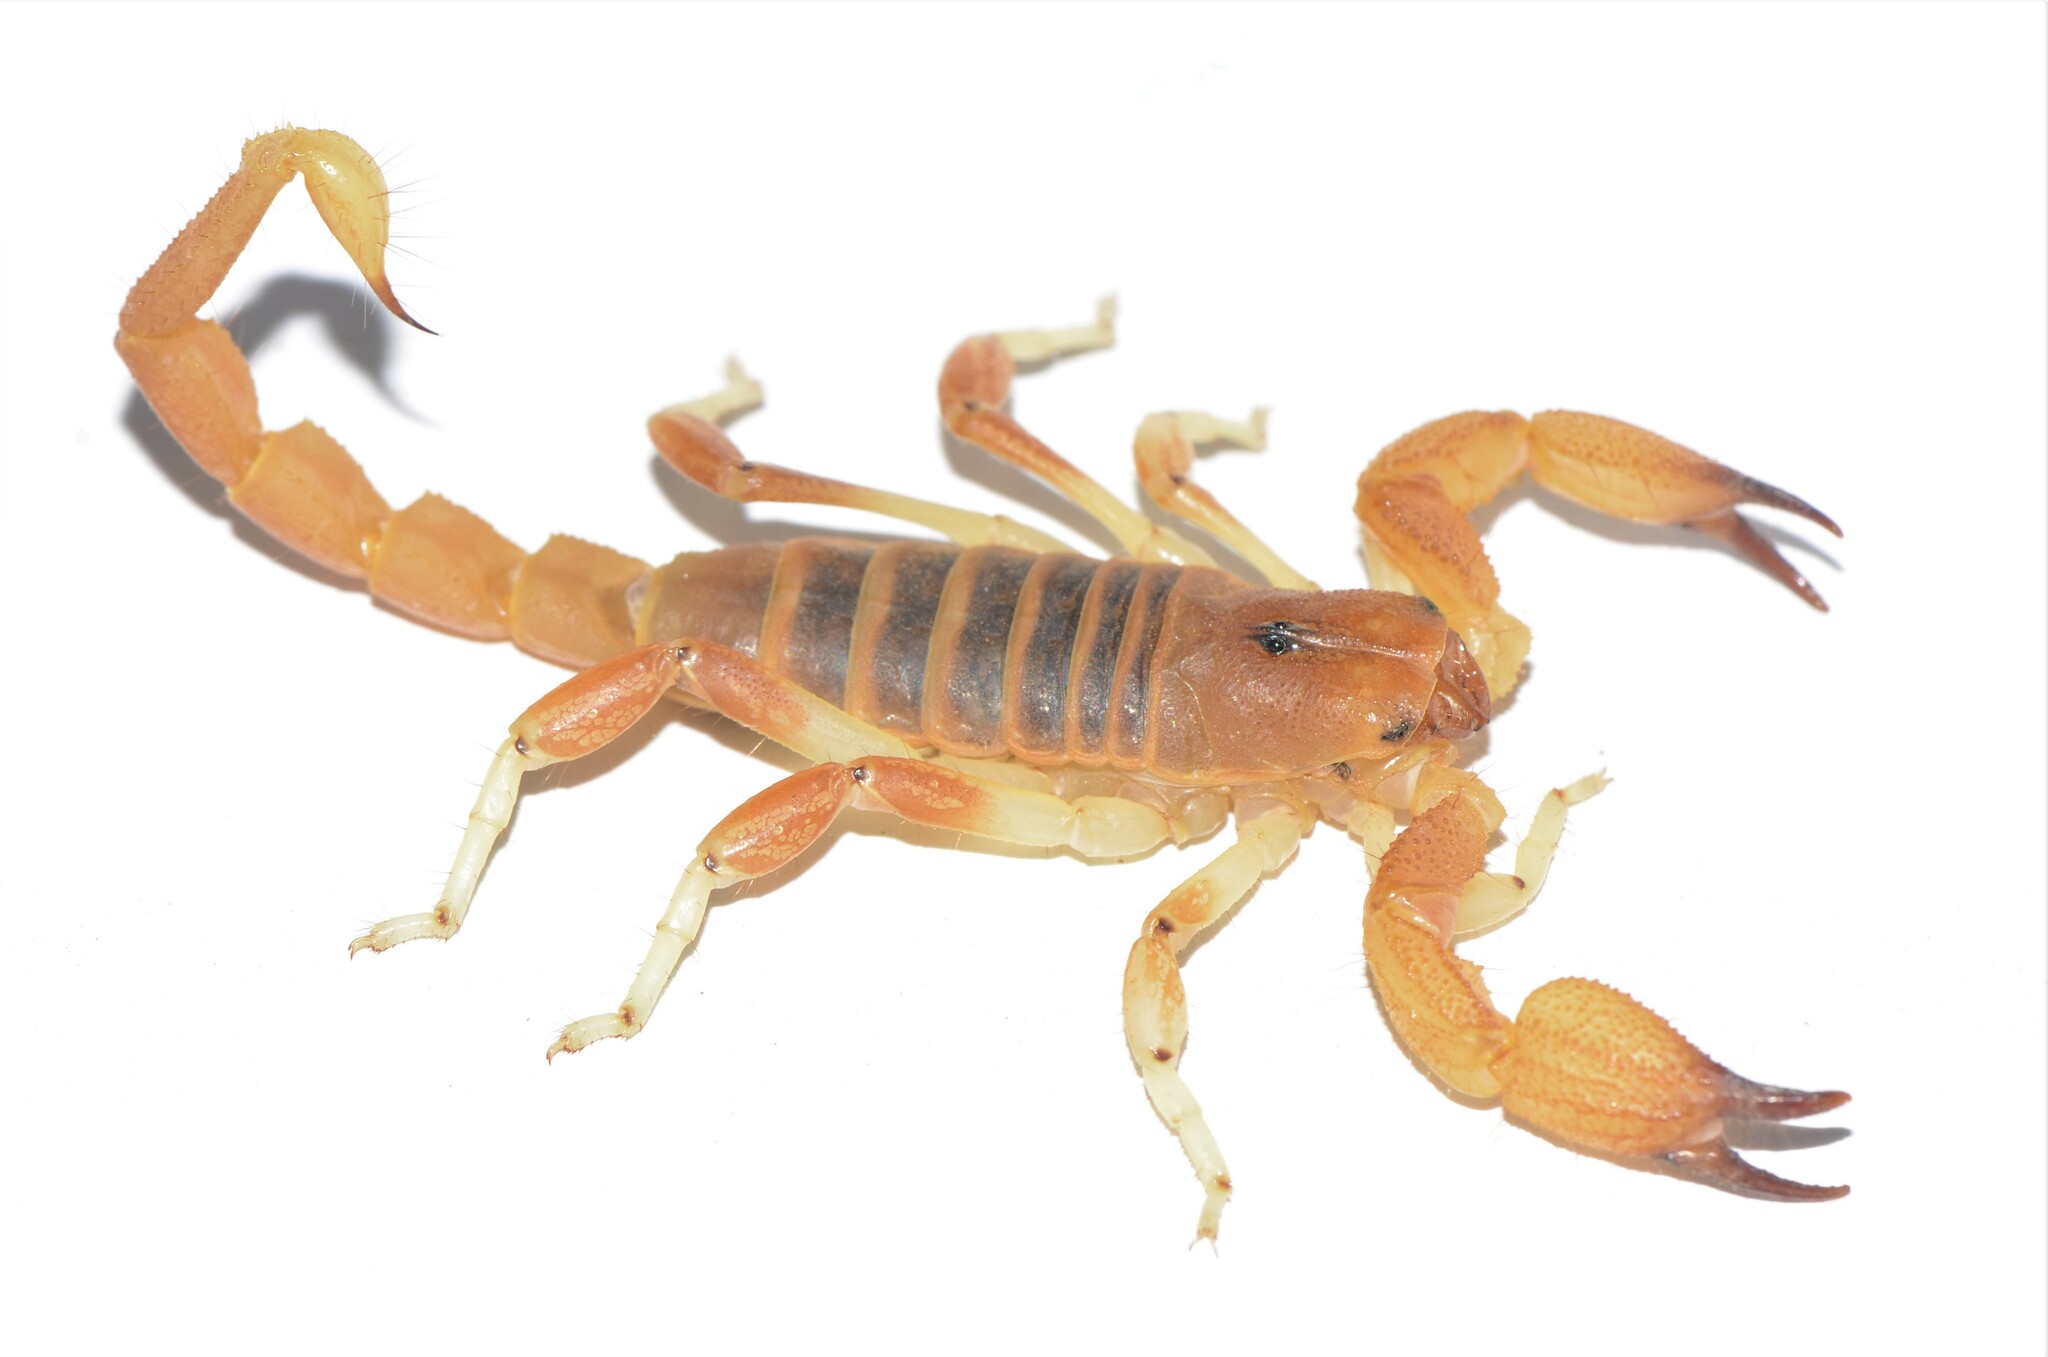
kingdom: Animalia
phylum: Arthropoda
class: Arachnida
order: Scorpiones
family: Scorpionidae
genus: Opistophthalmus
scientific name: Opistophthalmus lornae
